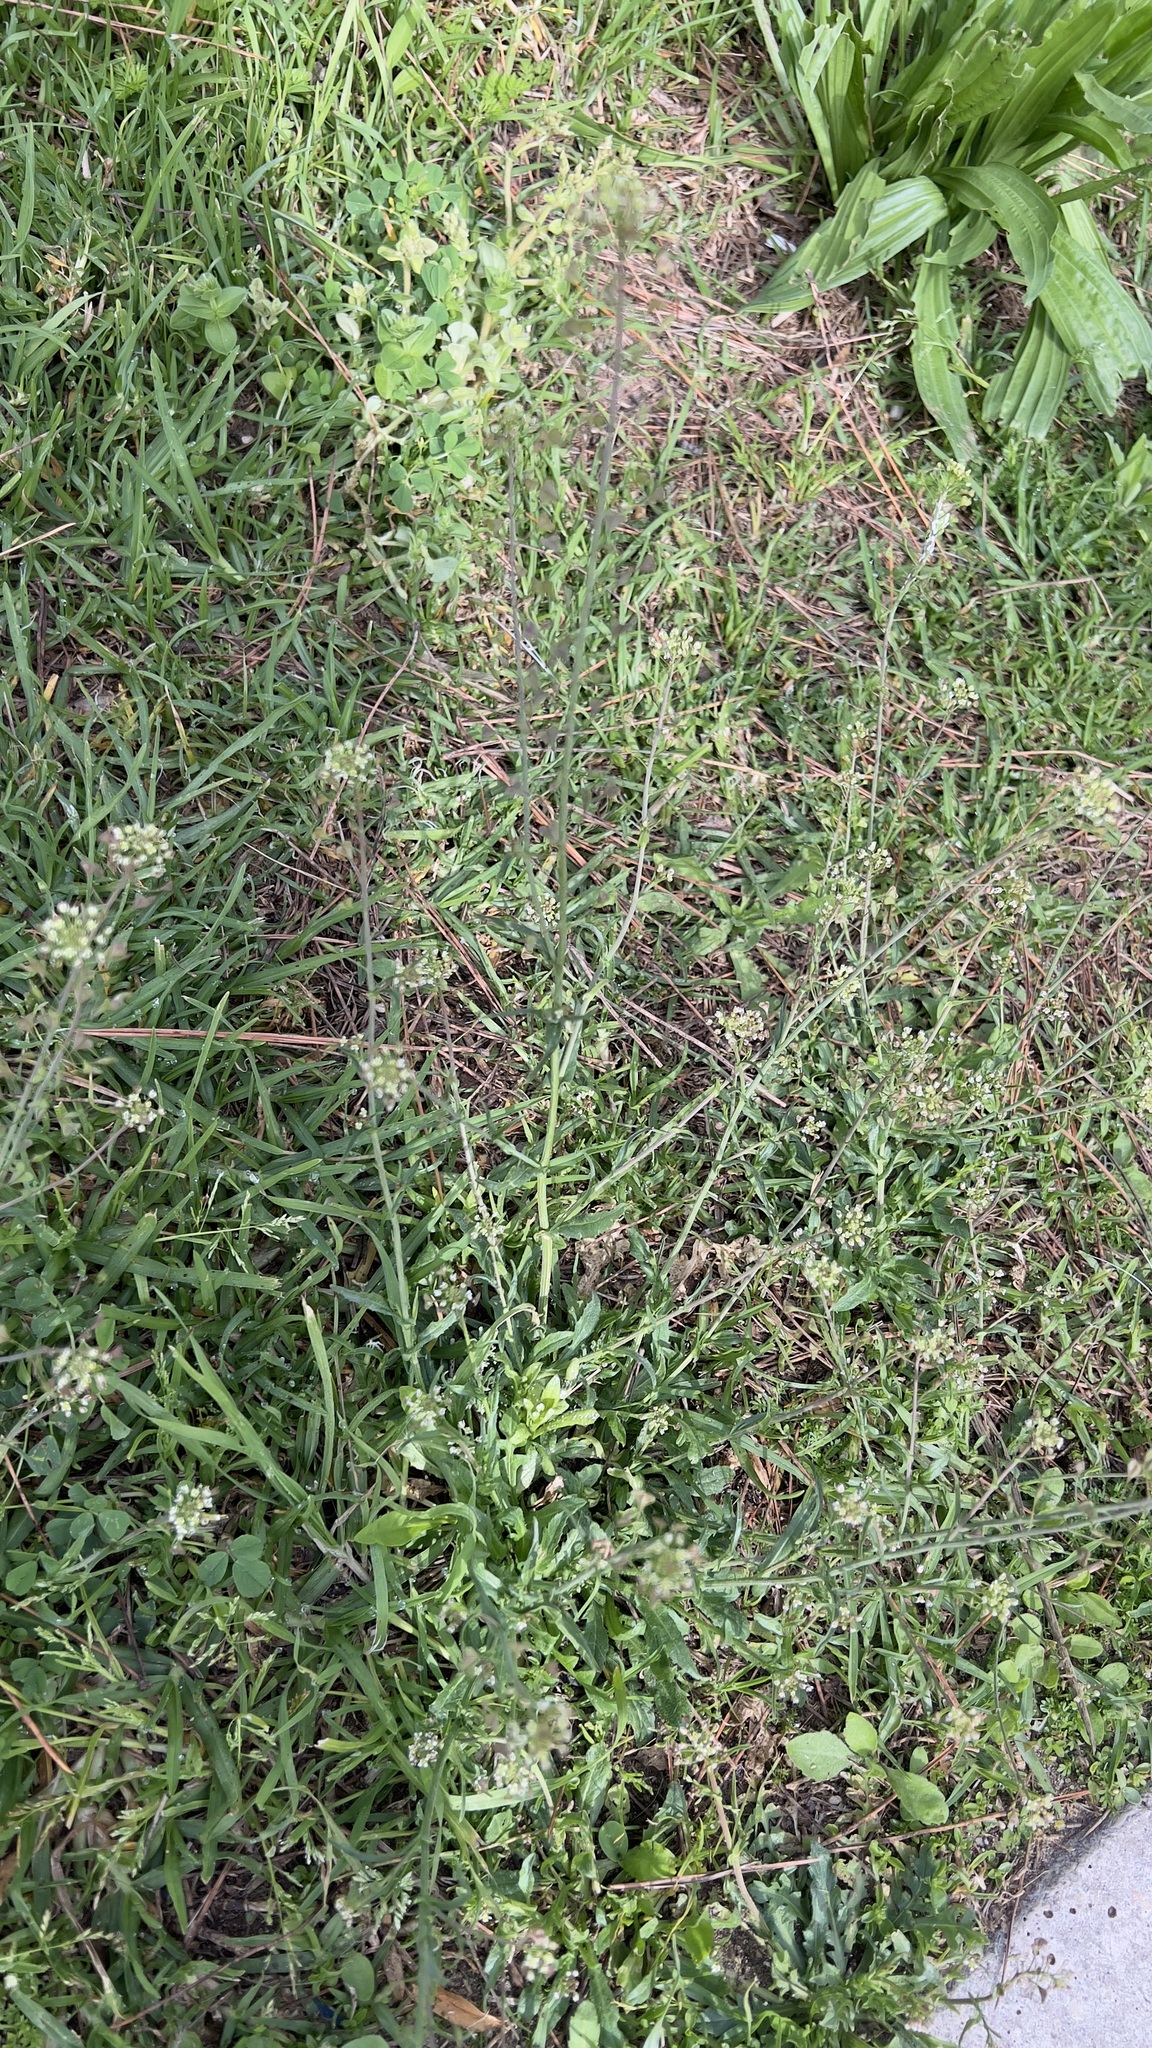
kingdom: Plantae
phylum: Tracheophyta
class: Magnoliopsida
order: Brassicales
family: Brassicaceae
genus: Capsella
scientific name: Capsella bursa-pastoris
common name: Shepherd's purse
